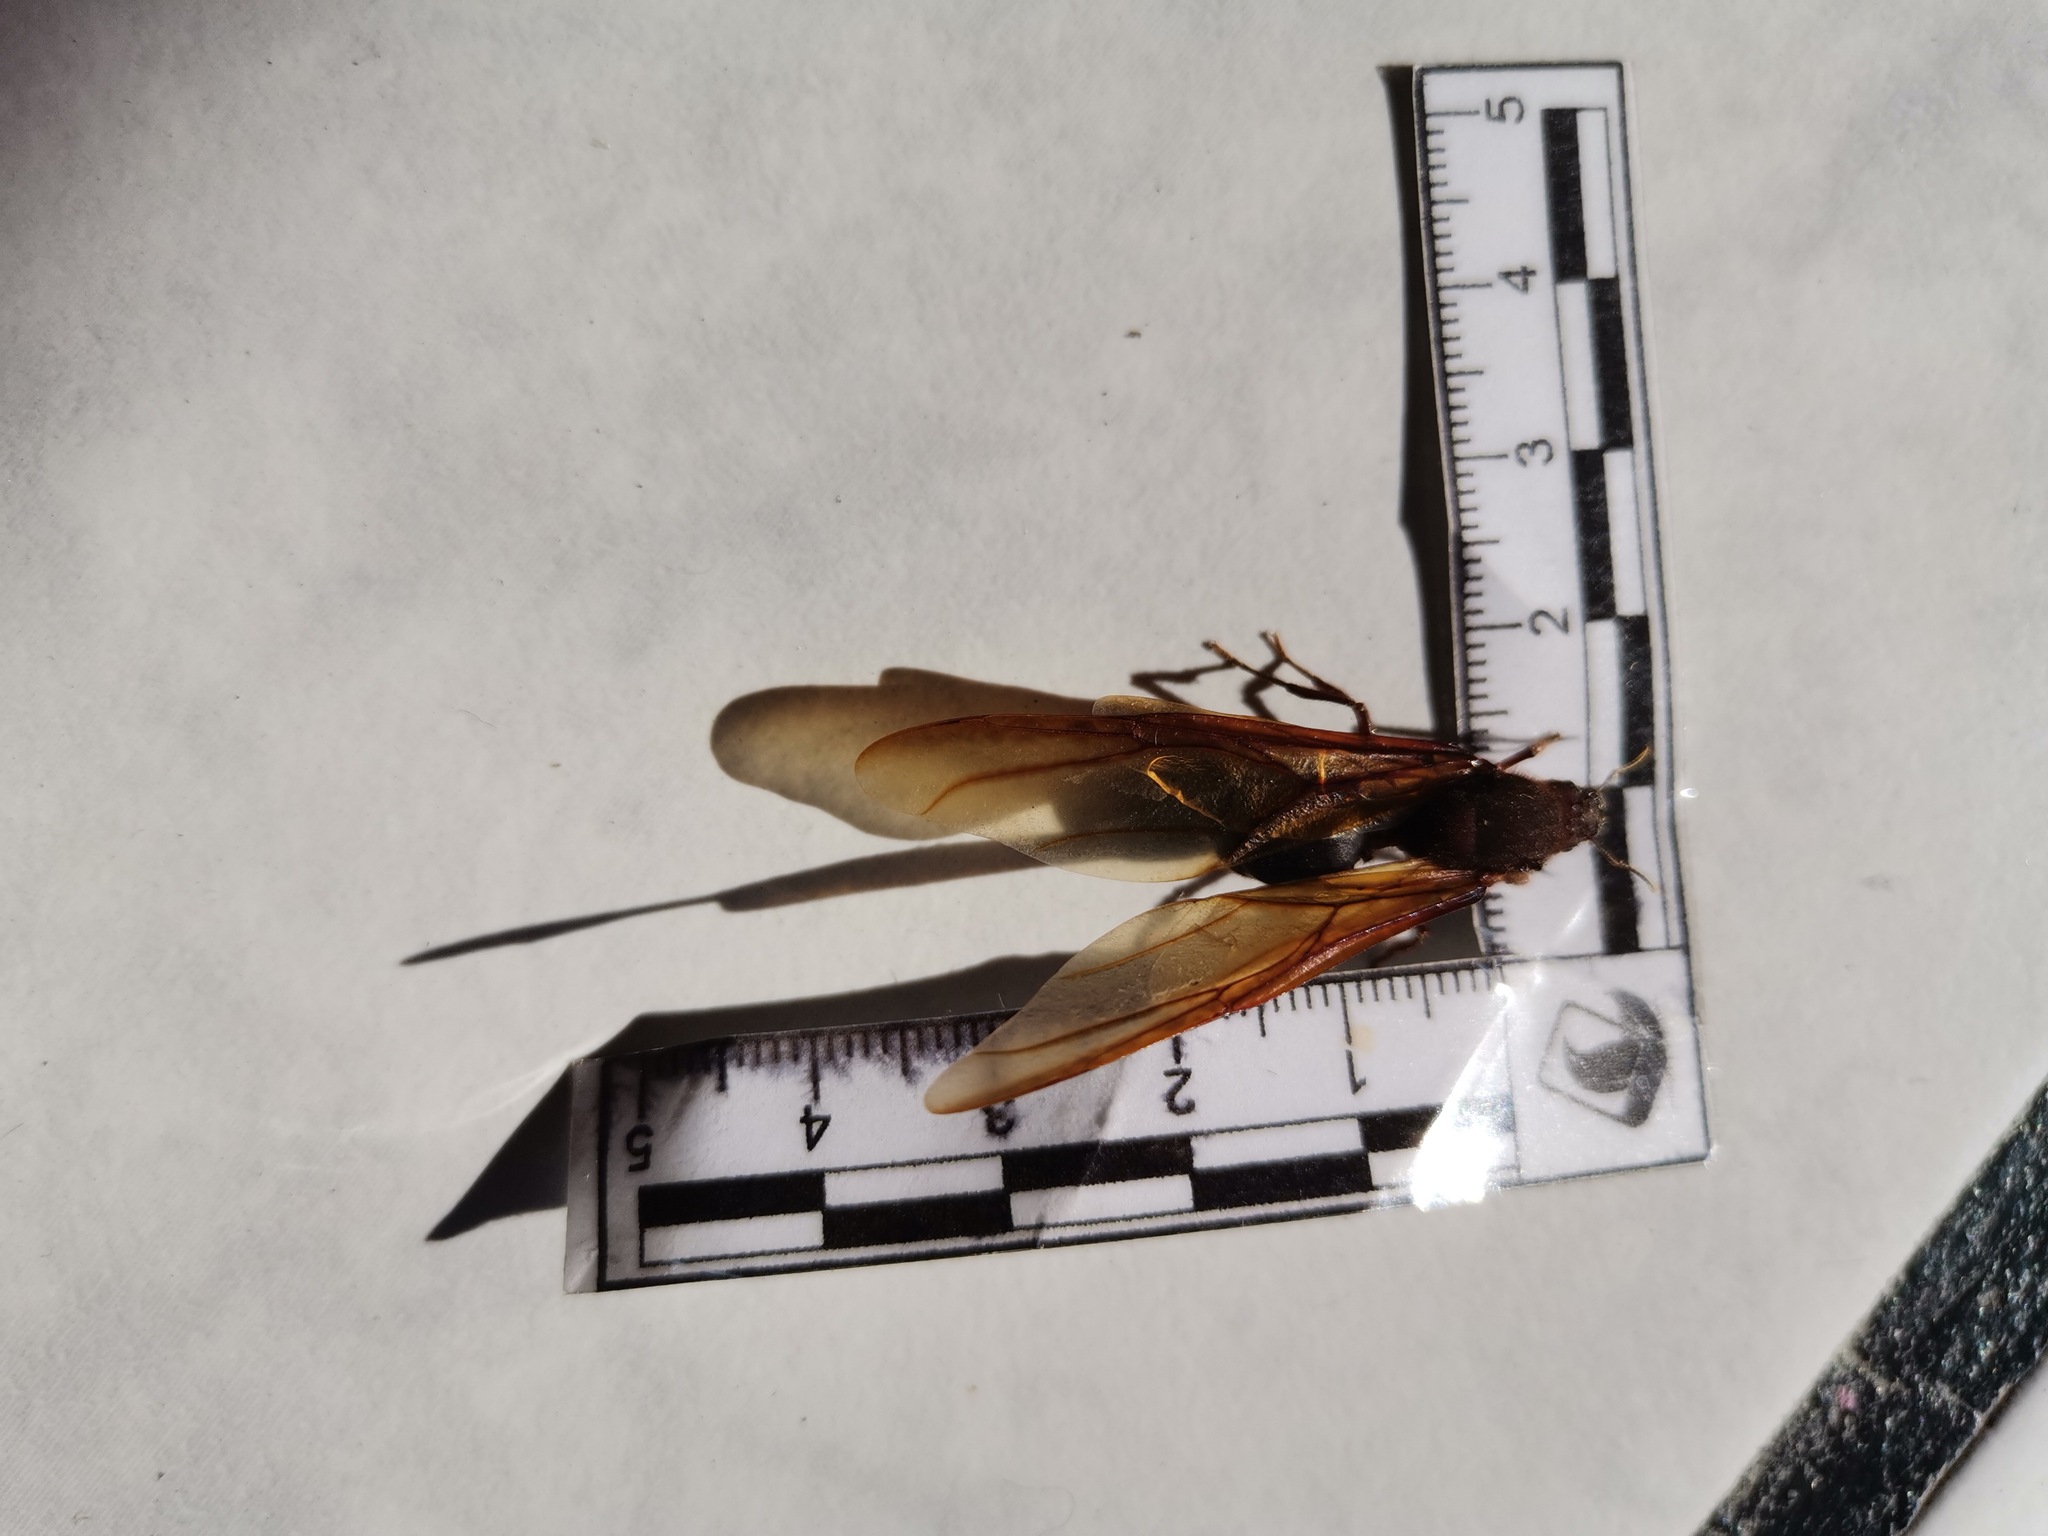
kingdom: Animalia
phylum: Arthropoda
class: Insecta
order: Hymenoptera
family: Formicidae
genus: Atta
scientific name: Atta mexicana
